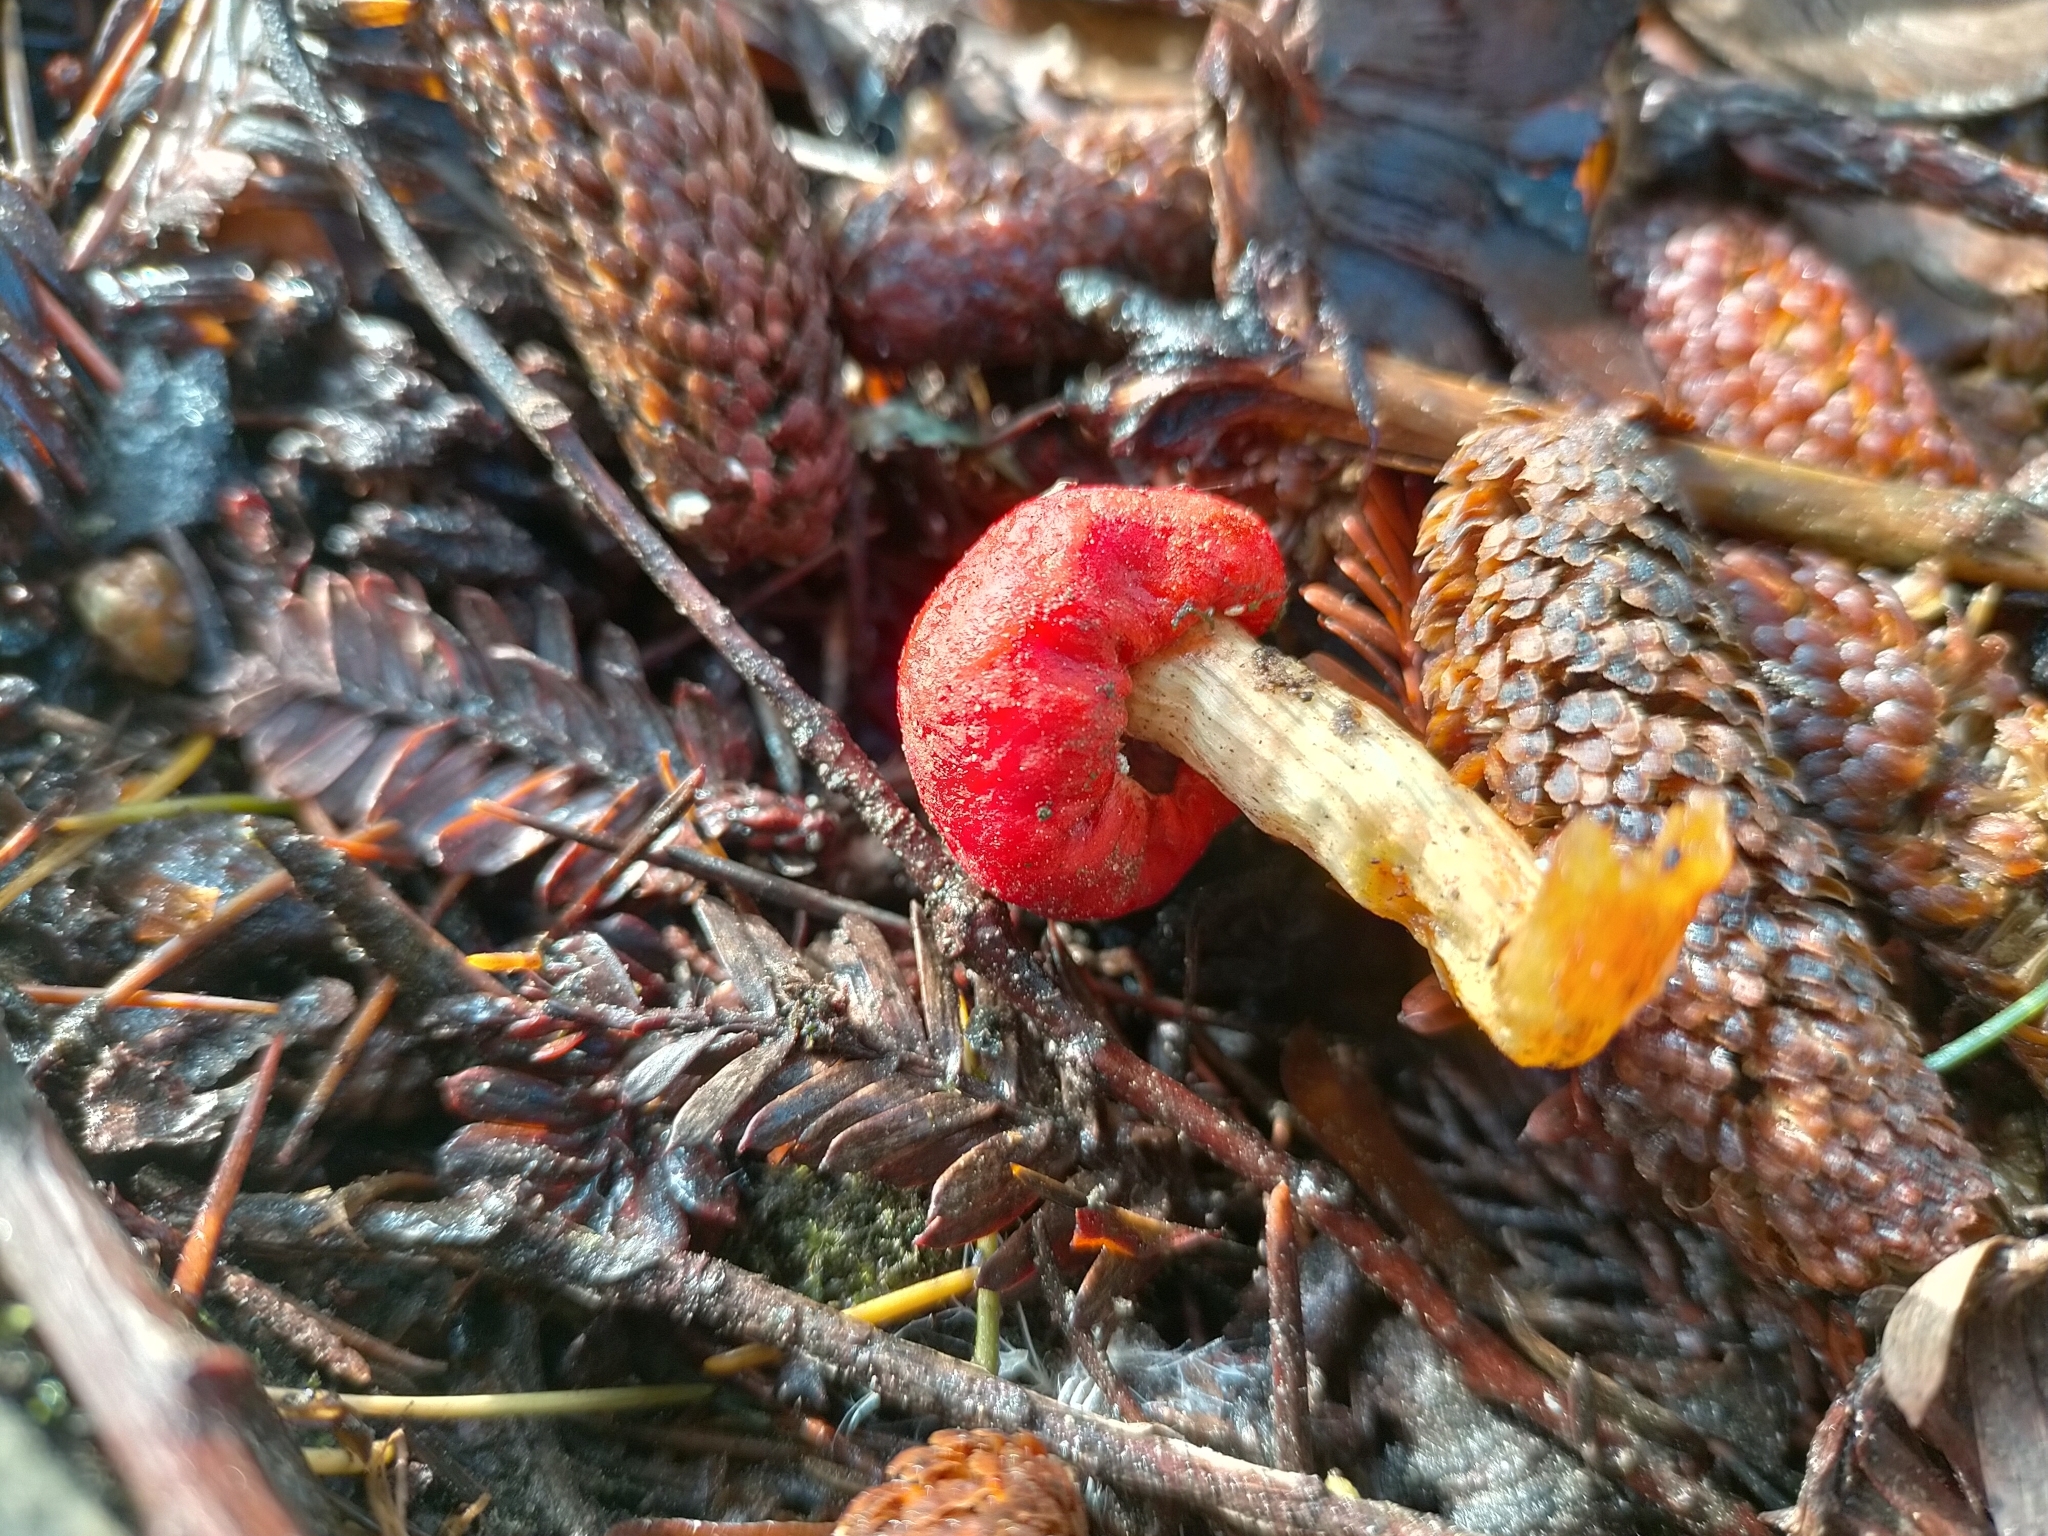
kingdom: Fungi
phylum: Basidiomycota
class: Agaricomycetes
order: Agaricales
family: Strophariaceae
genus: Leratiomyces
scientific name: Leratiomyces erythrocephalus
